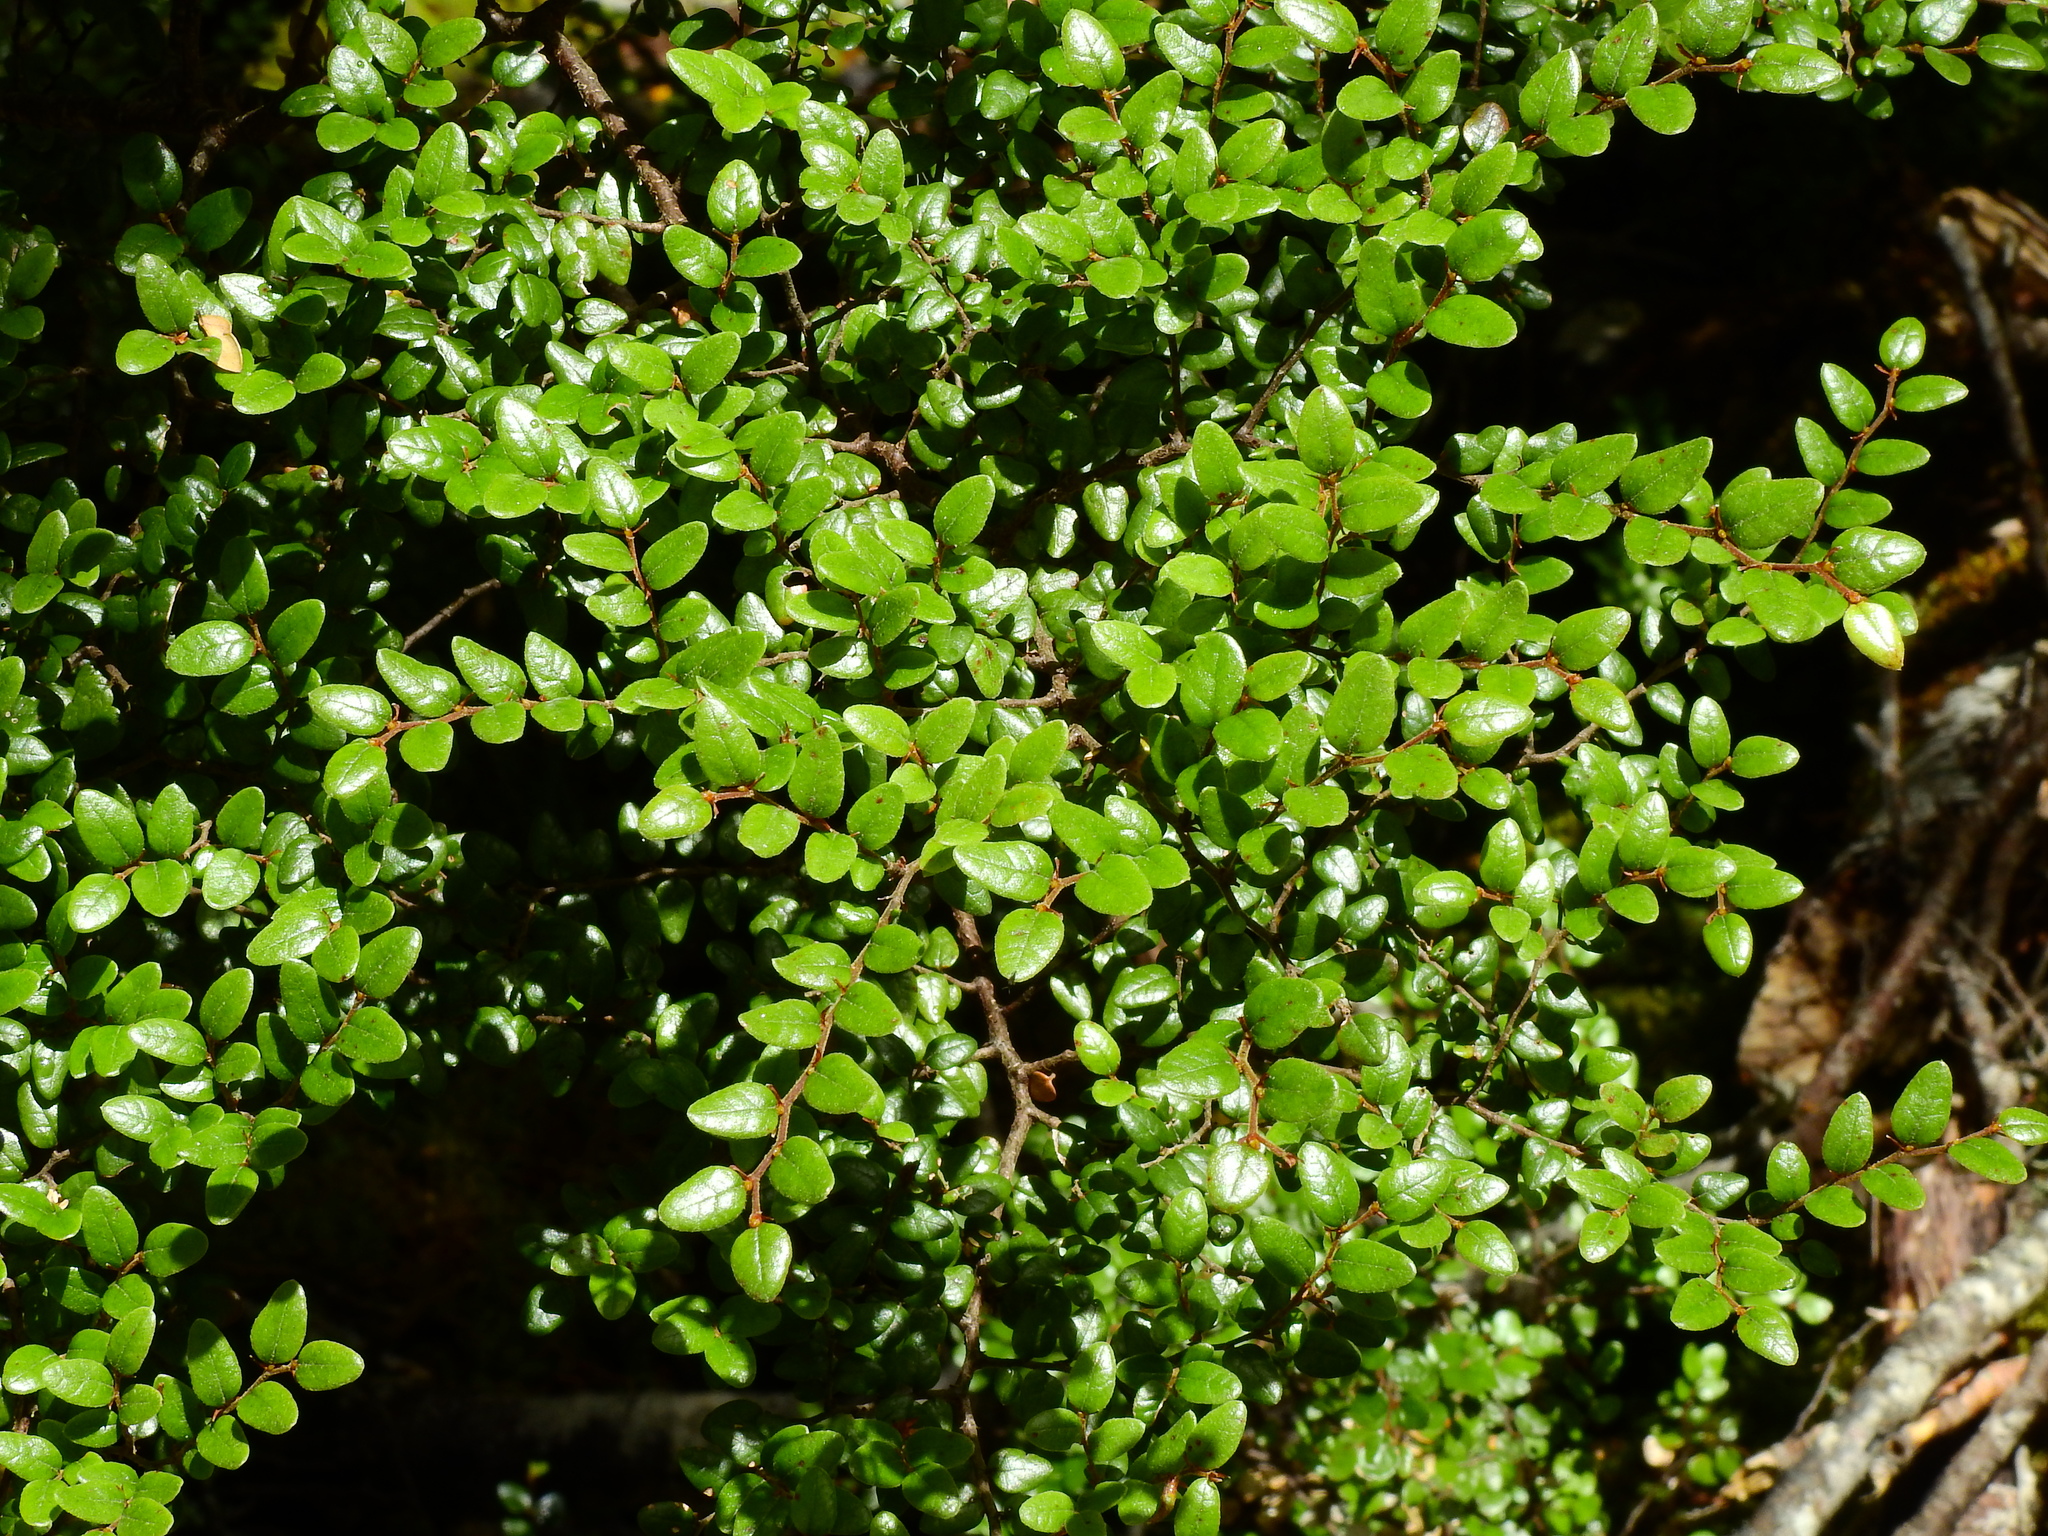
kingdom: Plantae
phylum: Tracheophyta
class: Magnoliopsida
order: Fagales
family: Nothofagaceae
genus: Nothofagus
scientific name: Nothofagus cliffortioides
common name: Mountain beech
